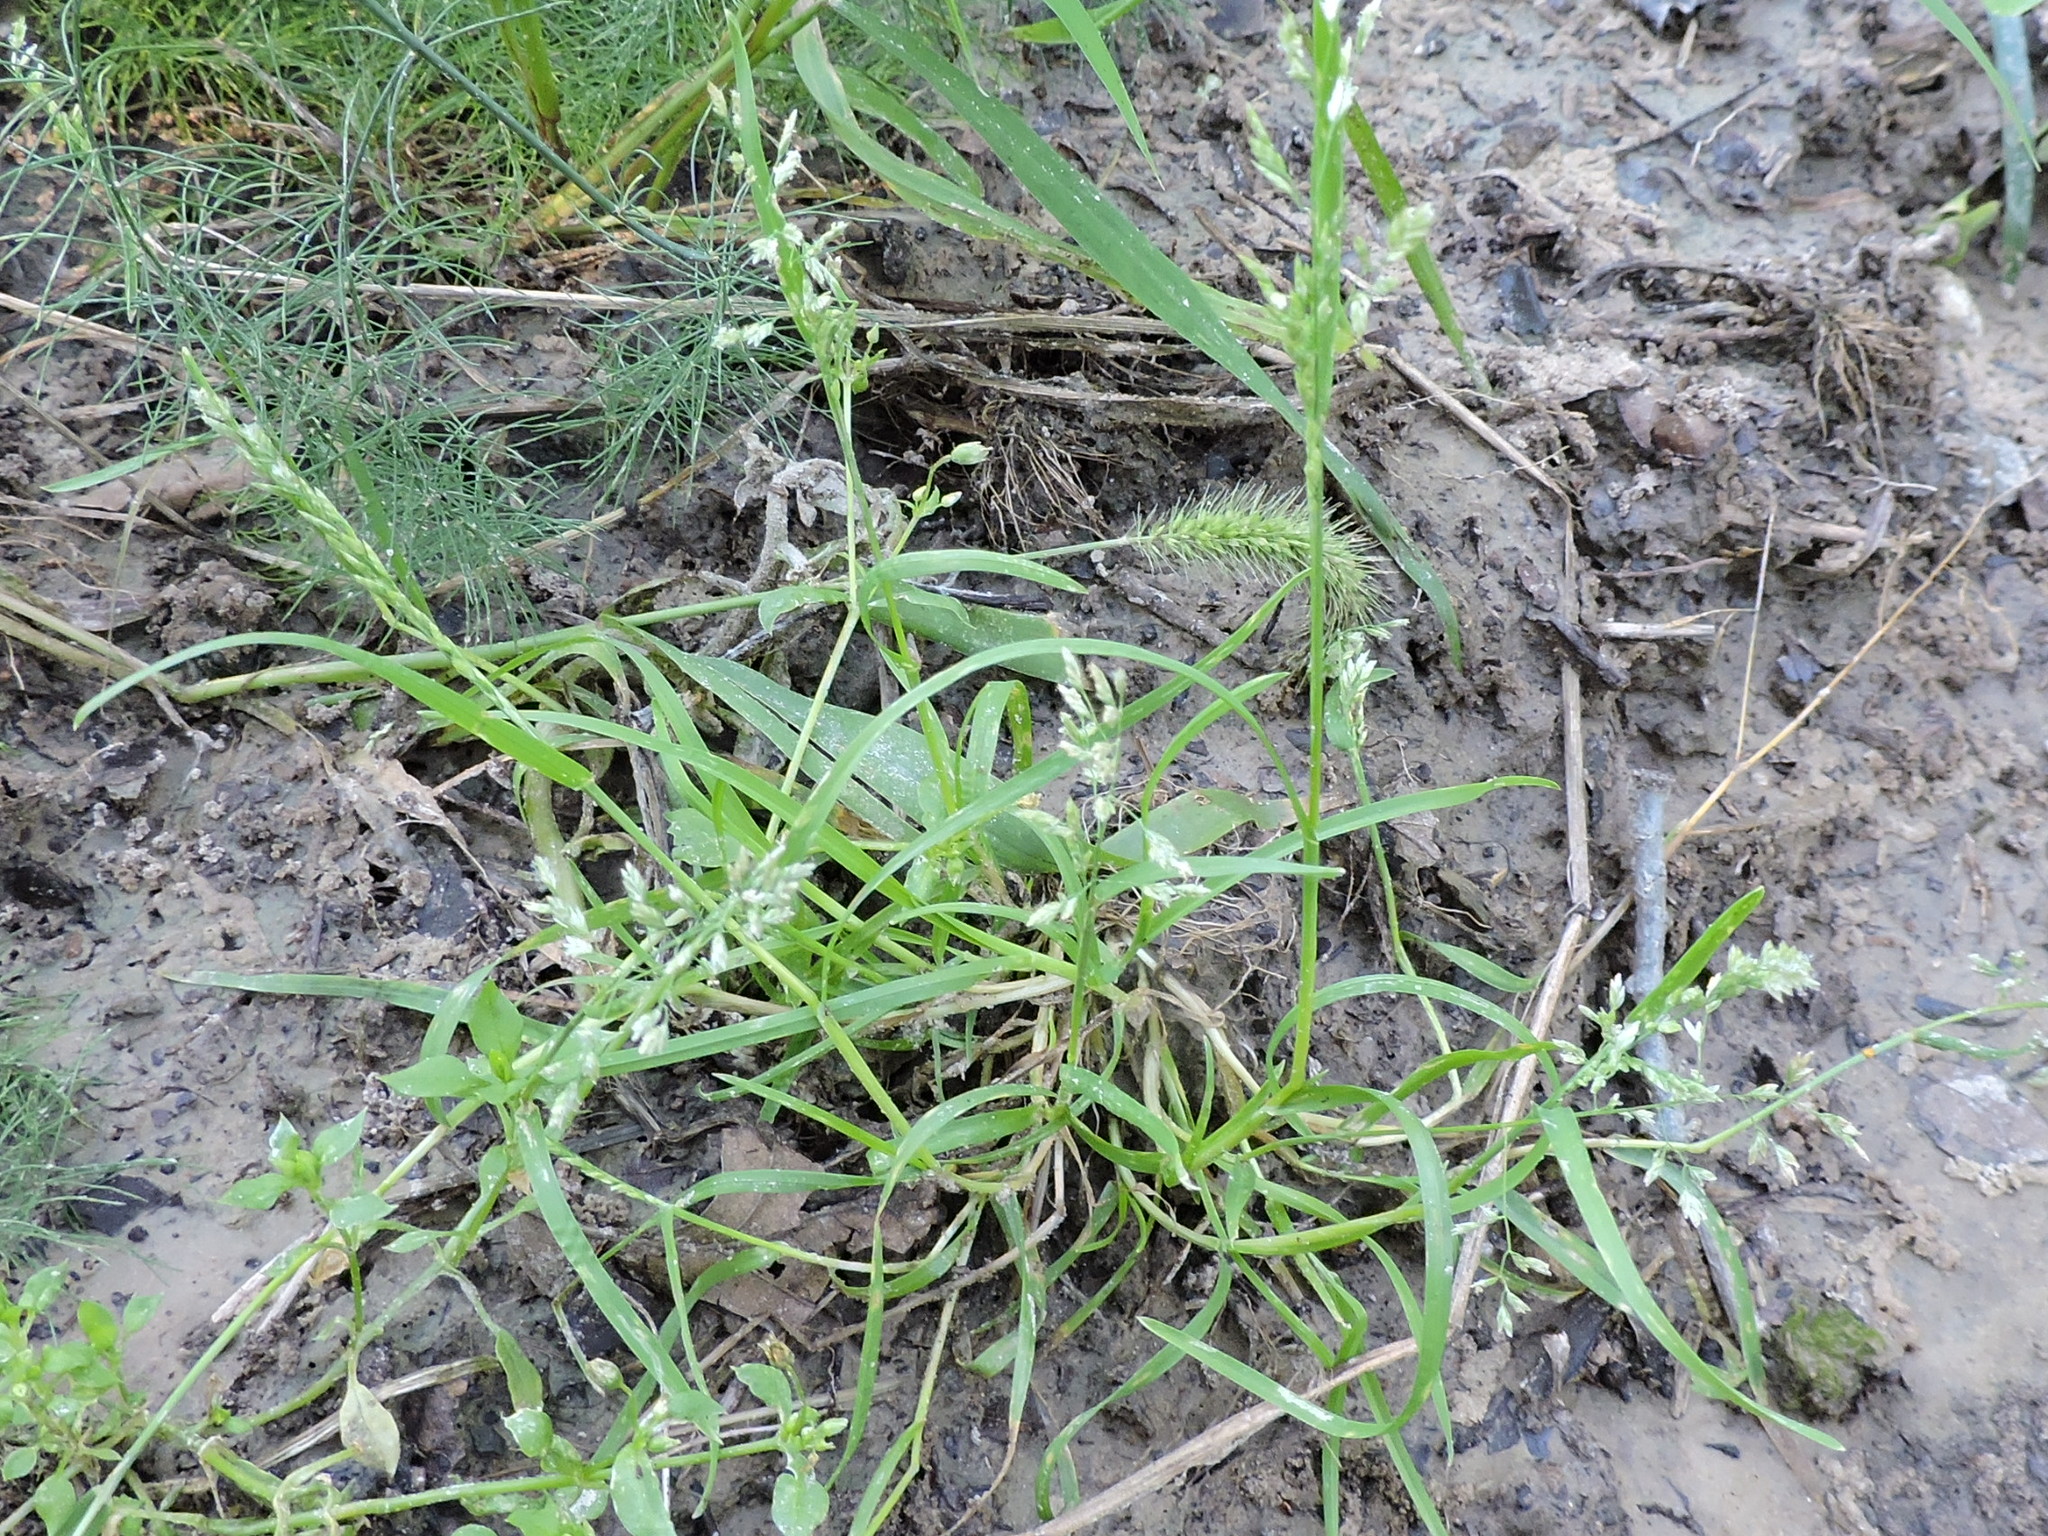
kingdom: Plantae
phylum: Tracheophyta
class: Liliopsida
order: Poales
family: Poaceae
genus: Poa
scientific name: Poa annua
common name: Annual bluegrass
